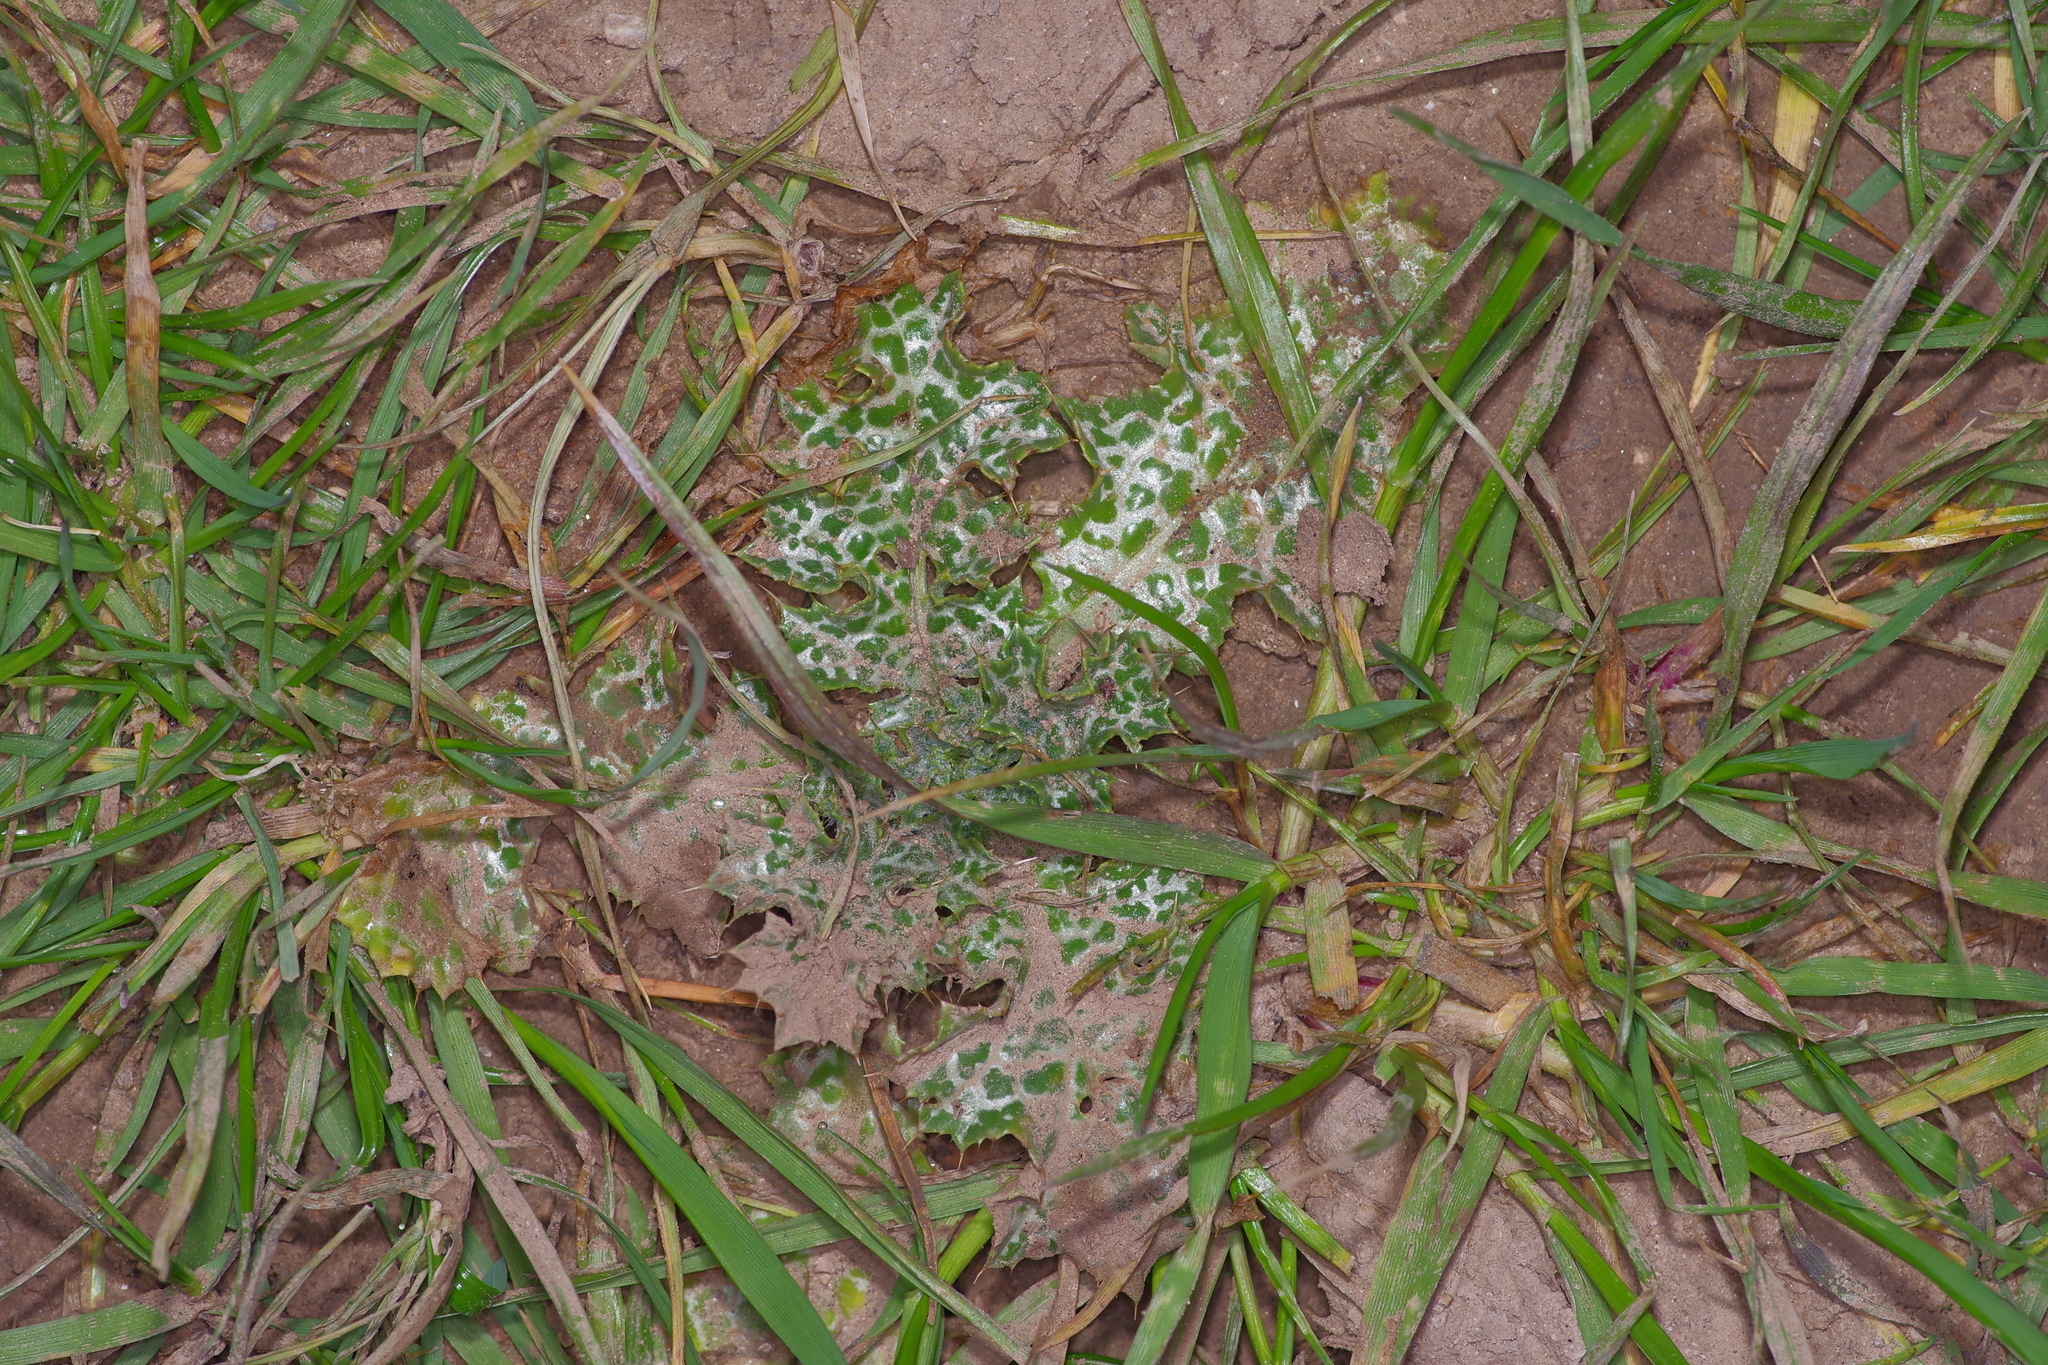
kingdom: Plantae
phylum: Tracheophyta
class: Magnoliopsida
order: Asterales
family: Asteraceae
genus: Silybum
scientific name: Silybum marianum
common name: Milk thistle
